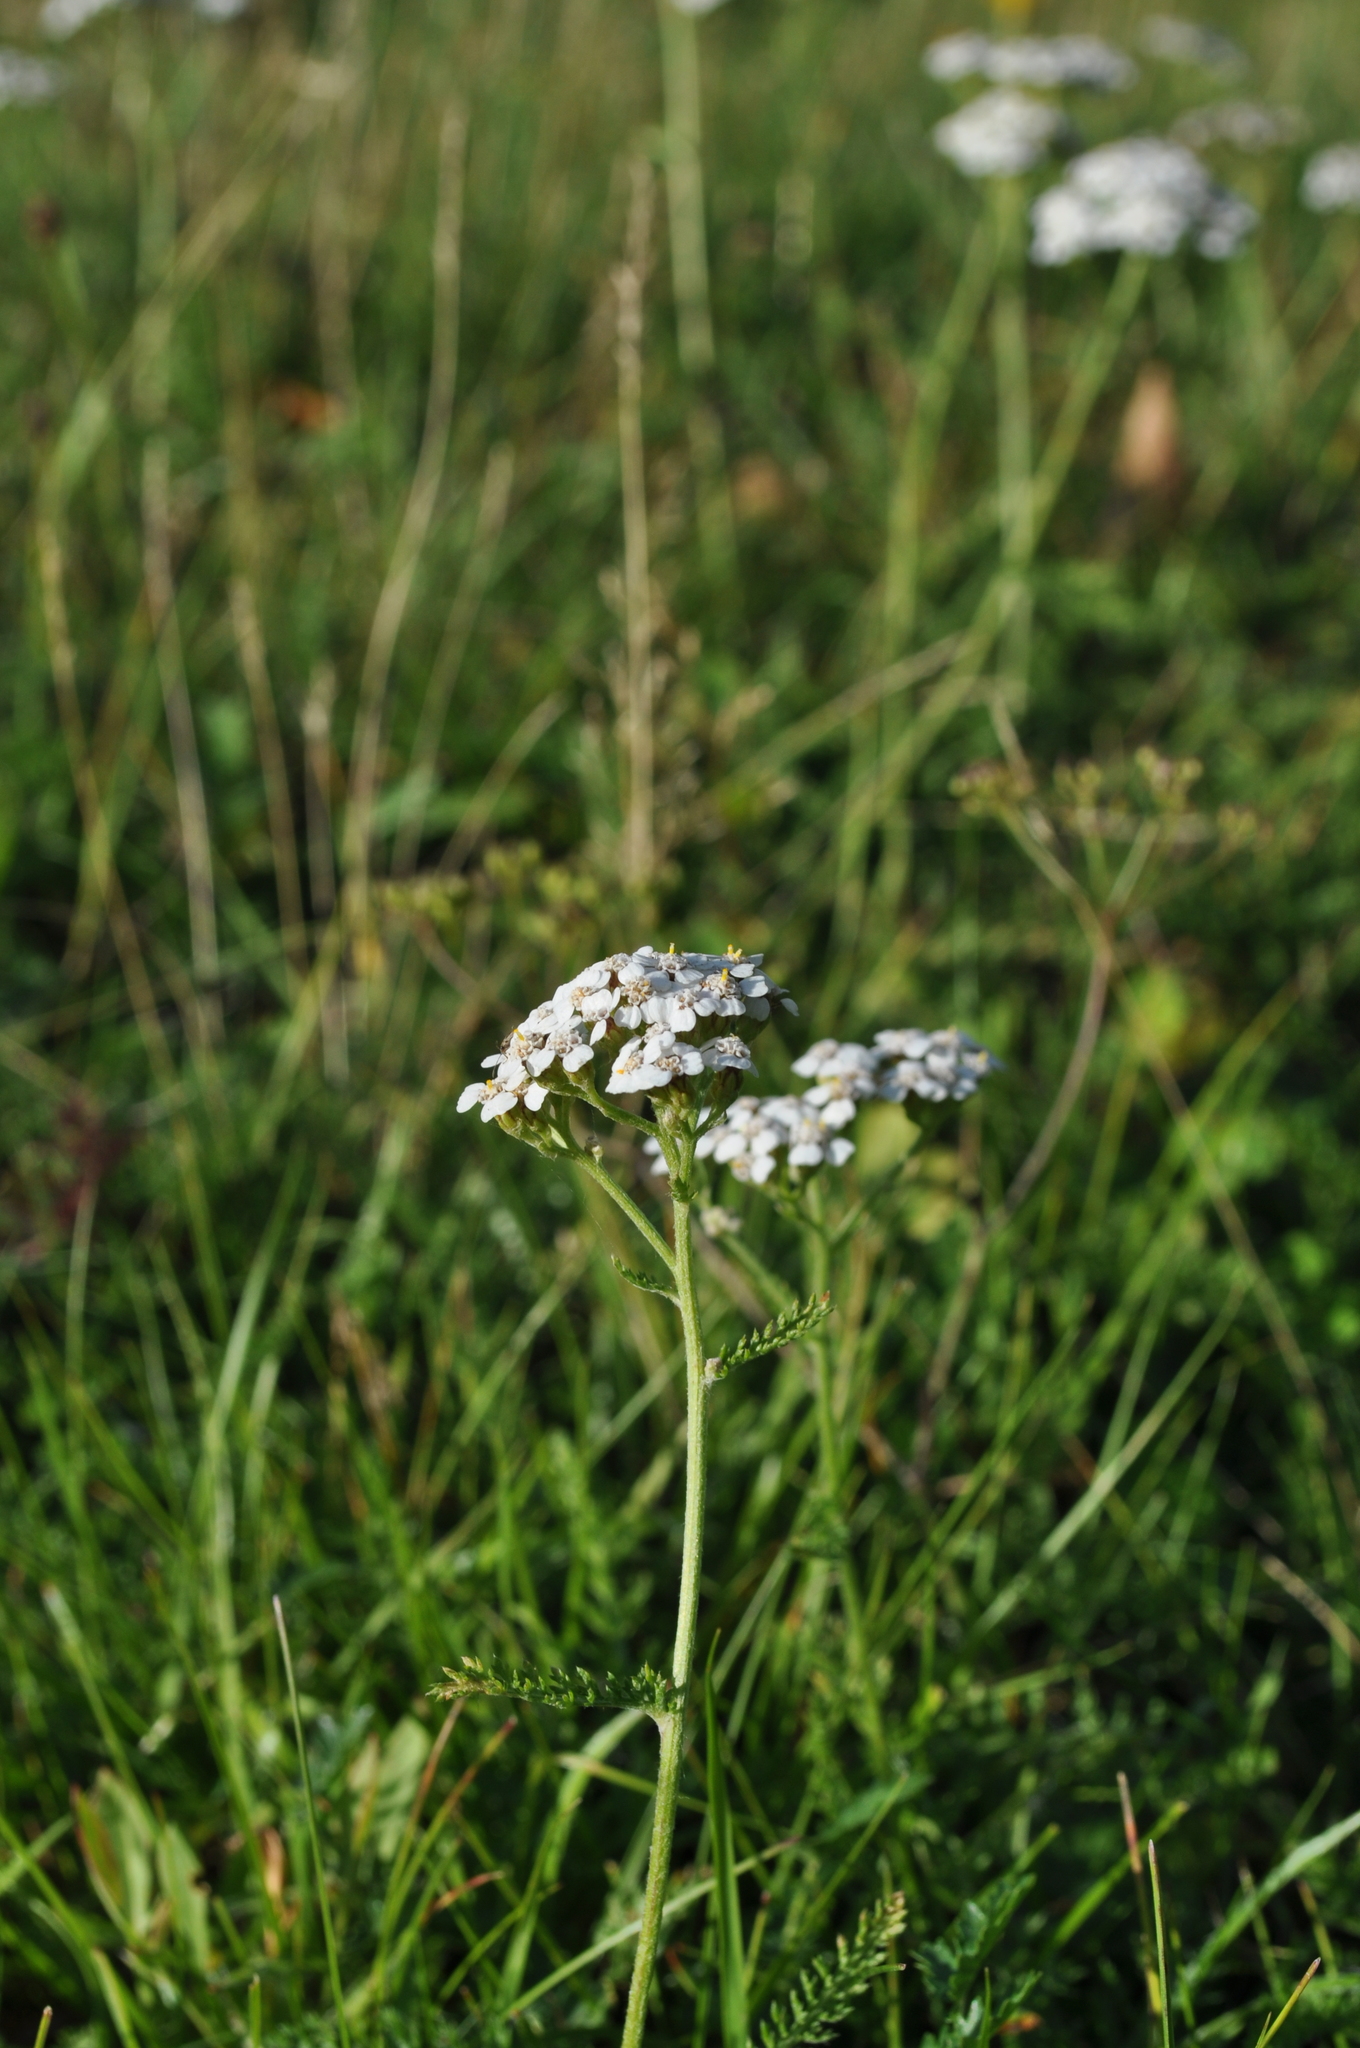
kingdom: Plantae
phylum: Tracheophyta
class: Magnoliopsida
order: Asterales
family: Asteraceae
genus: Achillea
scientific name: Achillea millefolium
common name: Yarrow
